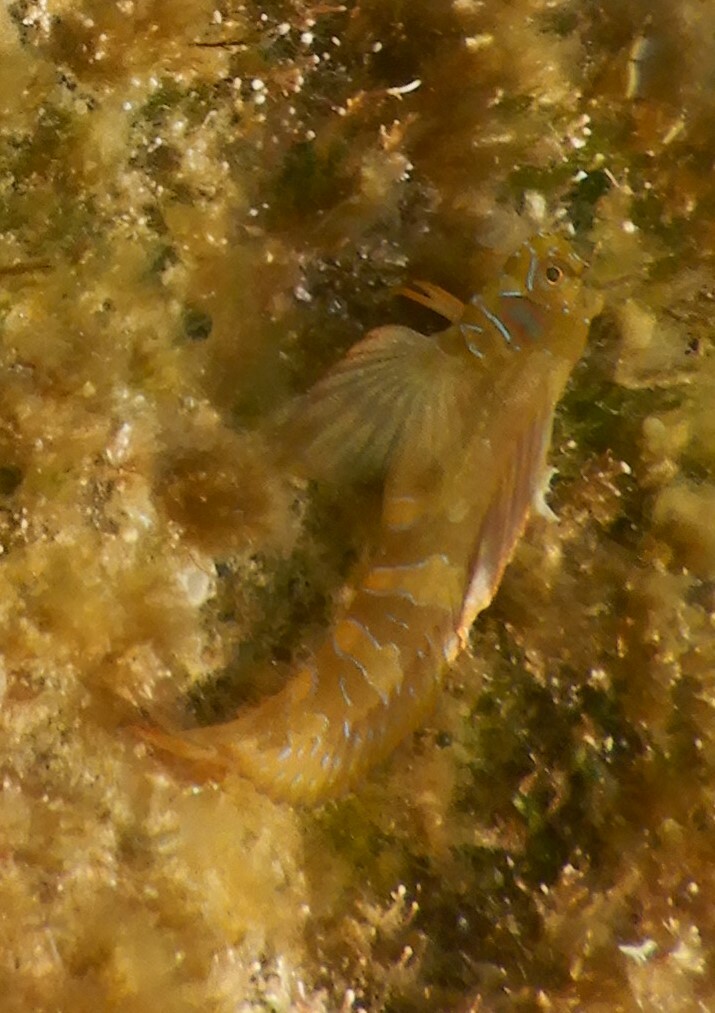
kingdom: Animalia
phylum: Chordata
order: Perciformes
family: Blenniidae
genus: Aidablennius
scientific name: Aidablennius sphynx
